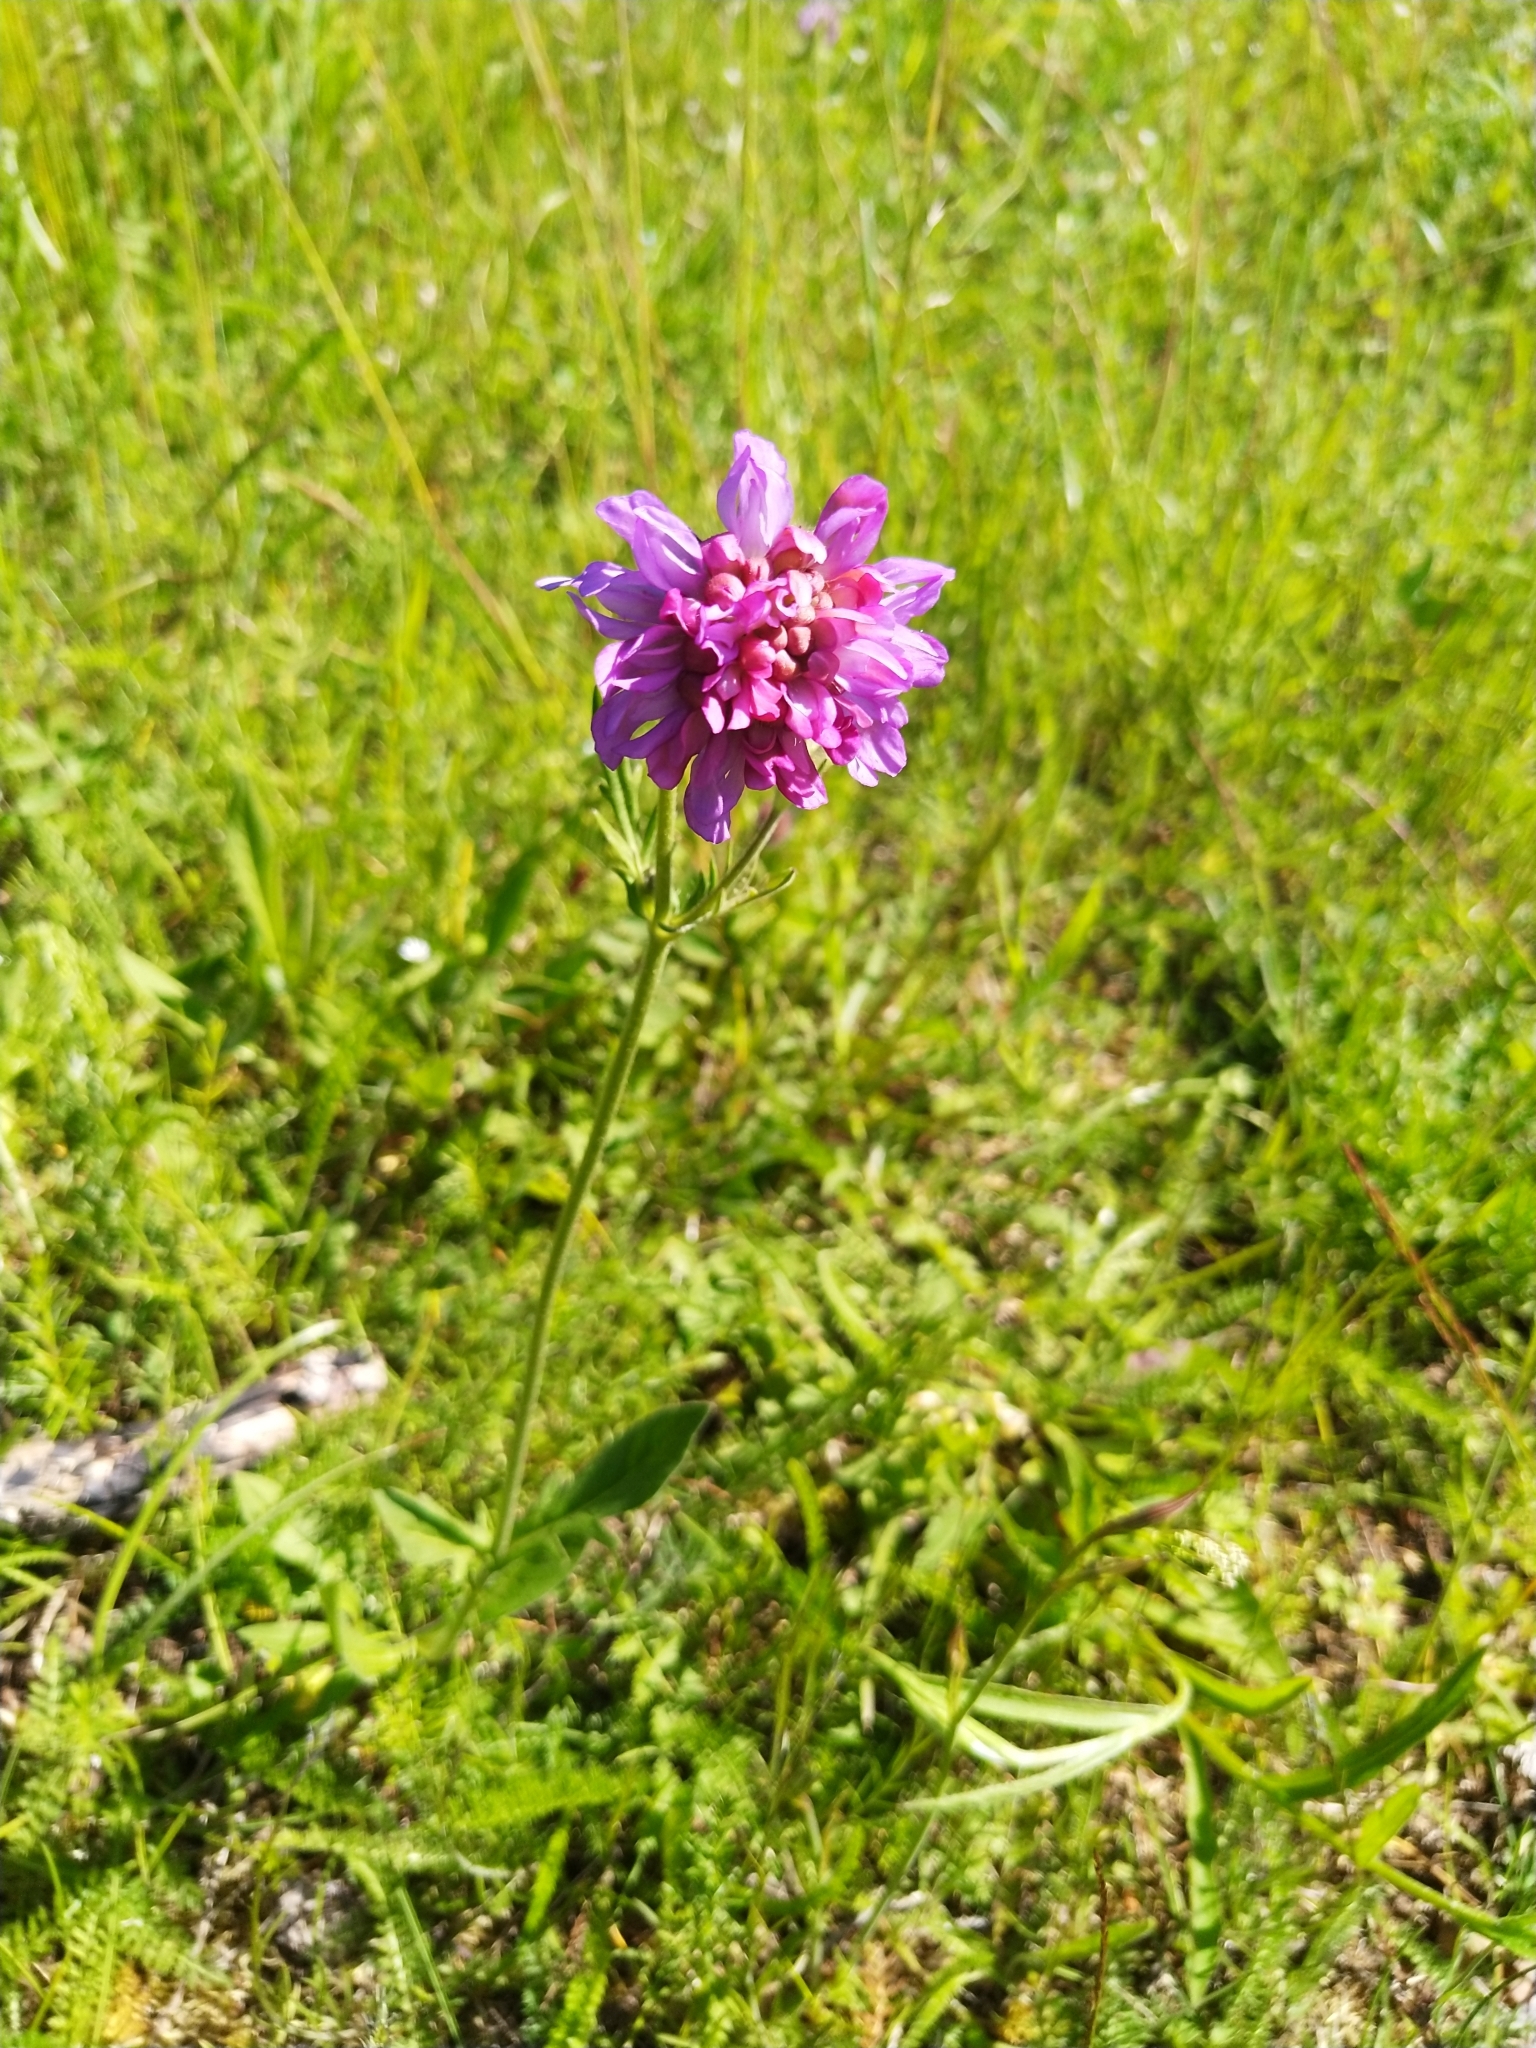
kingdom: Plantae
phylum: Tracheophyta
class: Magnoliopsida
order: Dipsacales
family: Caprifoliaceae
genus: Knautia
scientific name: Knautia arvensis
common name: Field scabiosa
